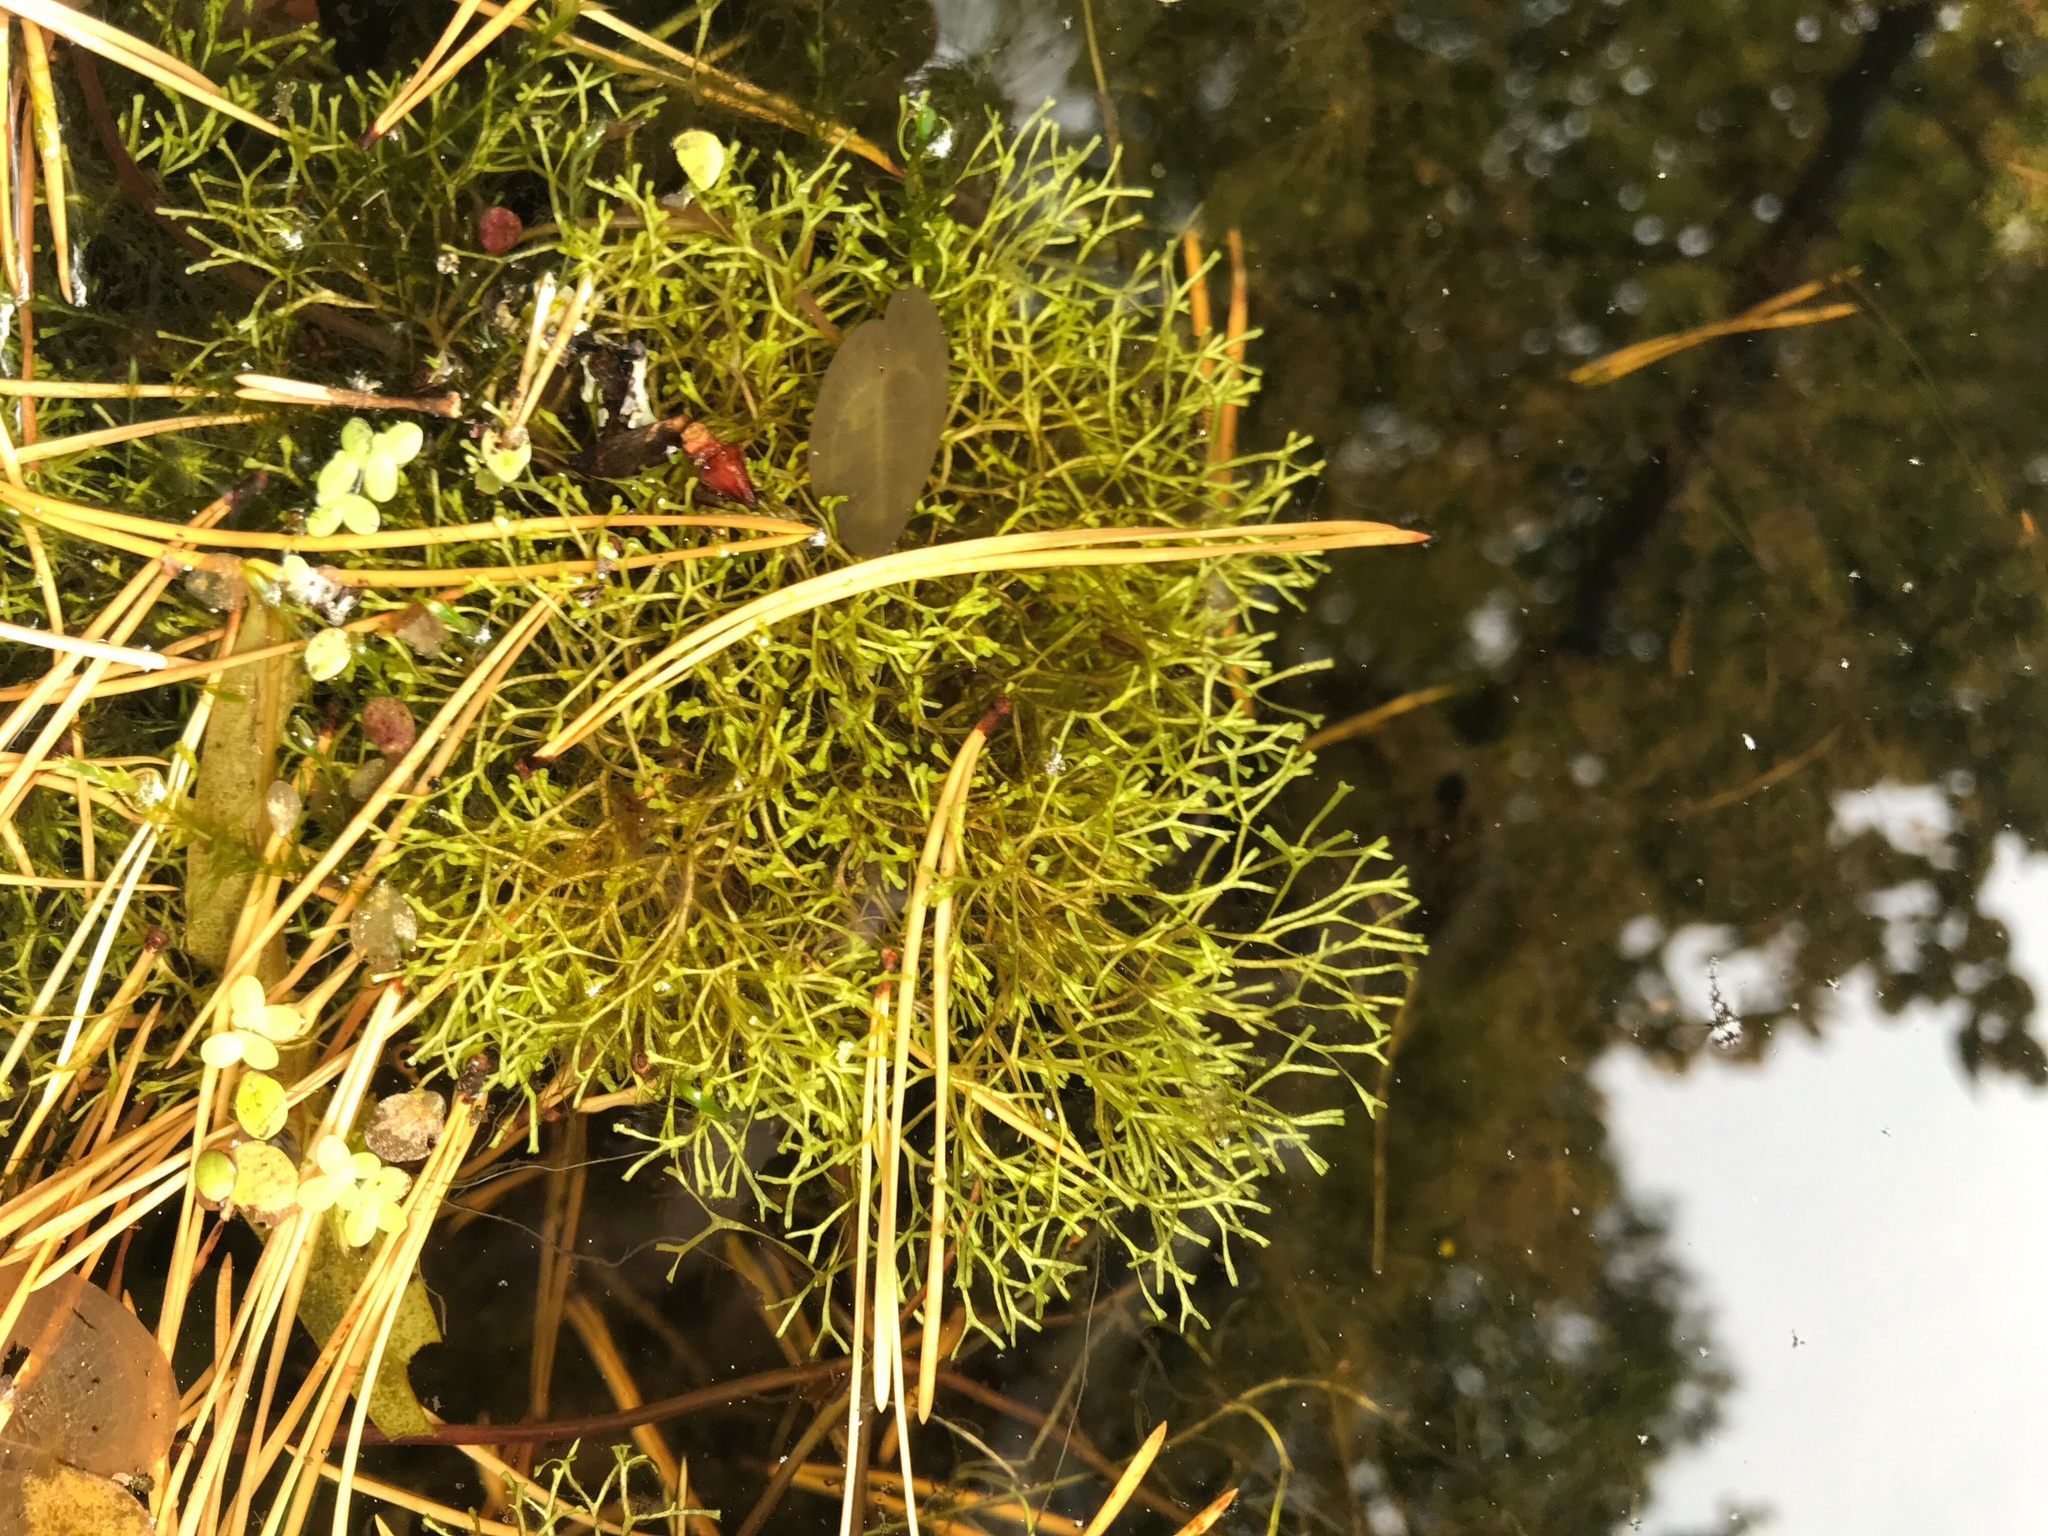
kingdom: Plantae
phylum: Marchantiophyta
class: Marchantiopsida
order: Marchantiales
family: Ricciaceae
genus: Riccia
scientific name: Riccia fluitans
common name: Floating crystalwort
